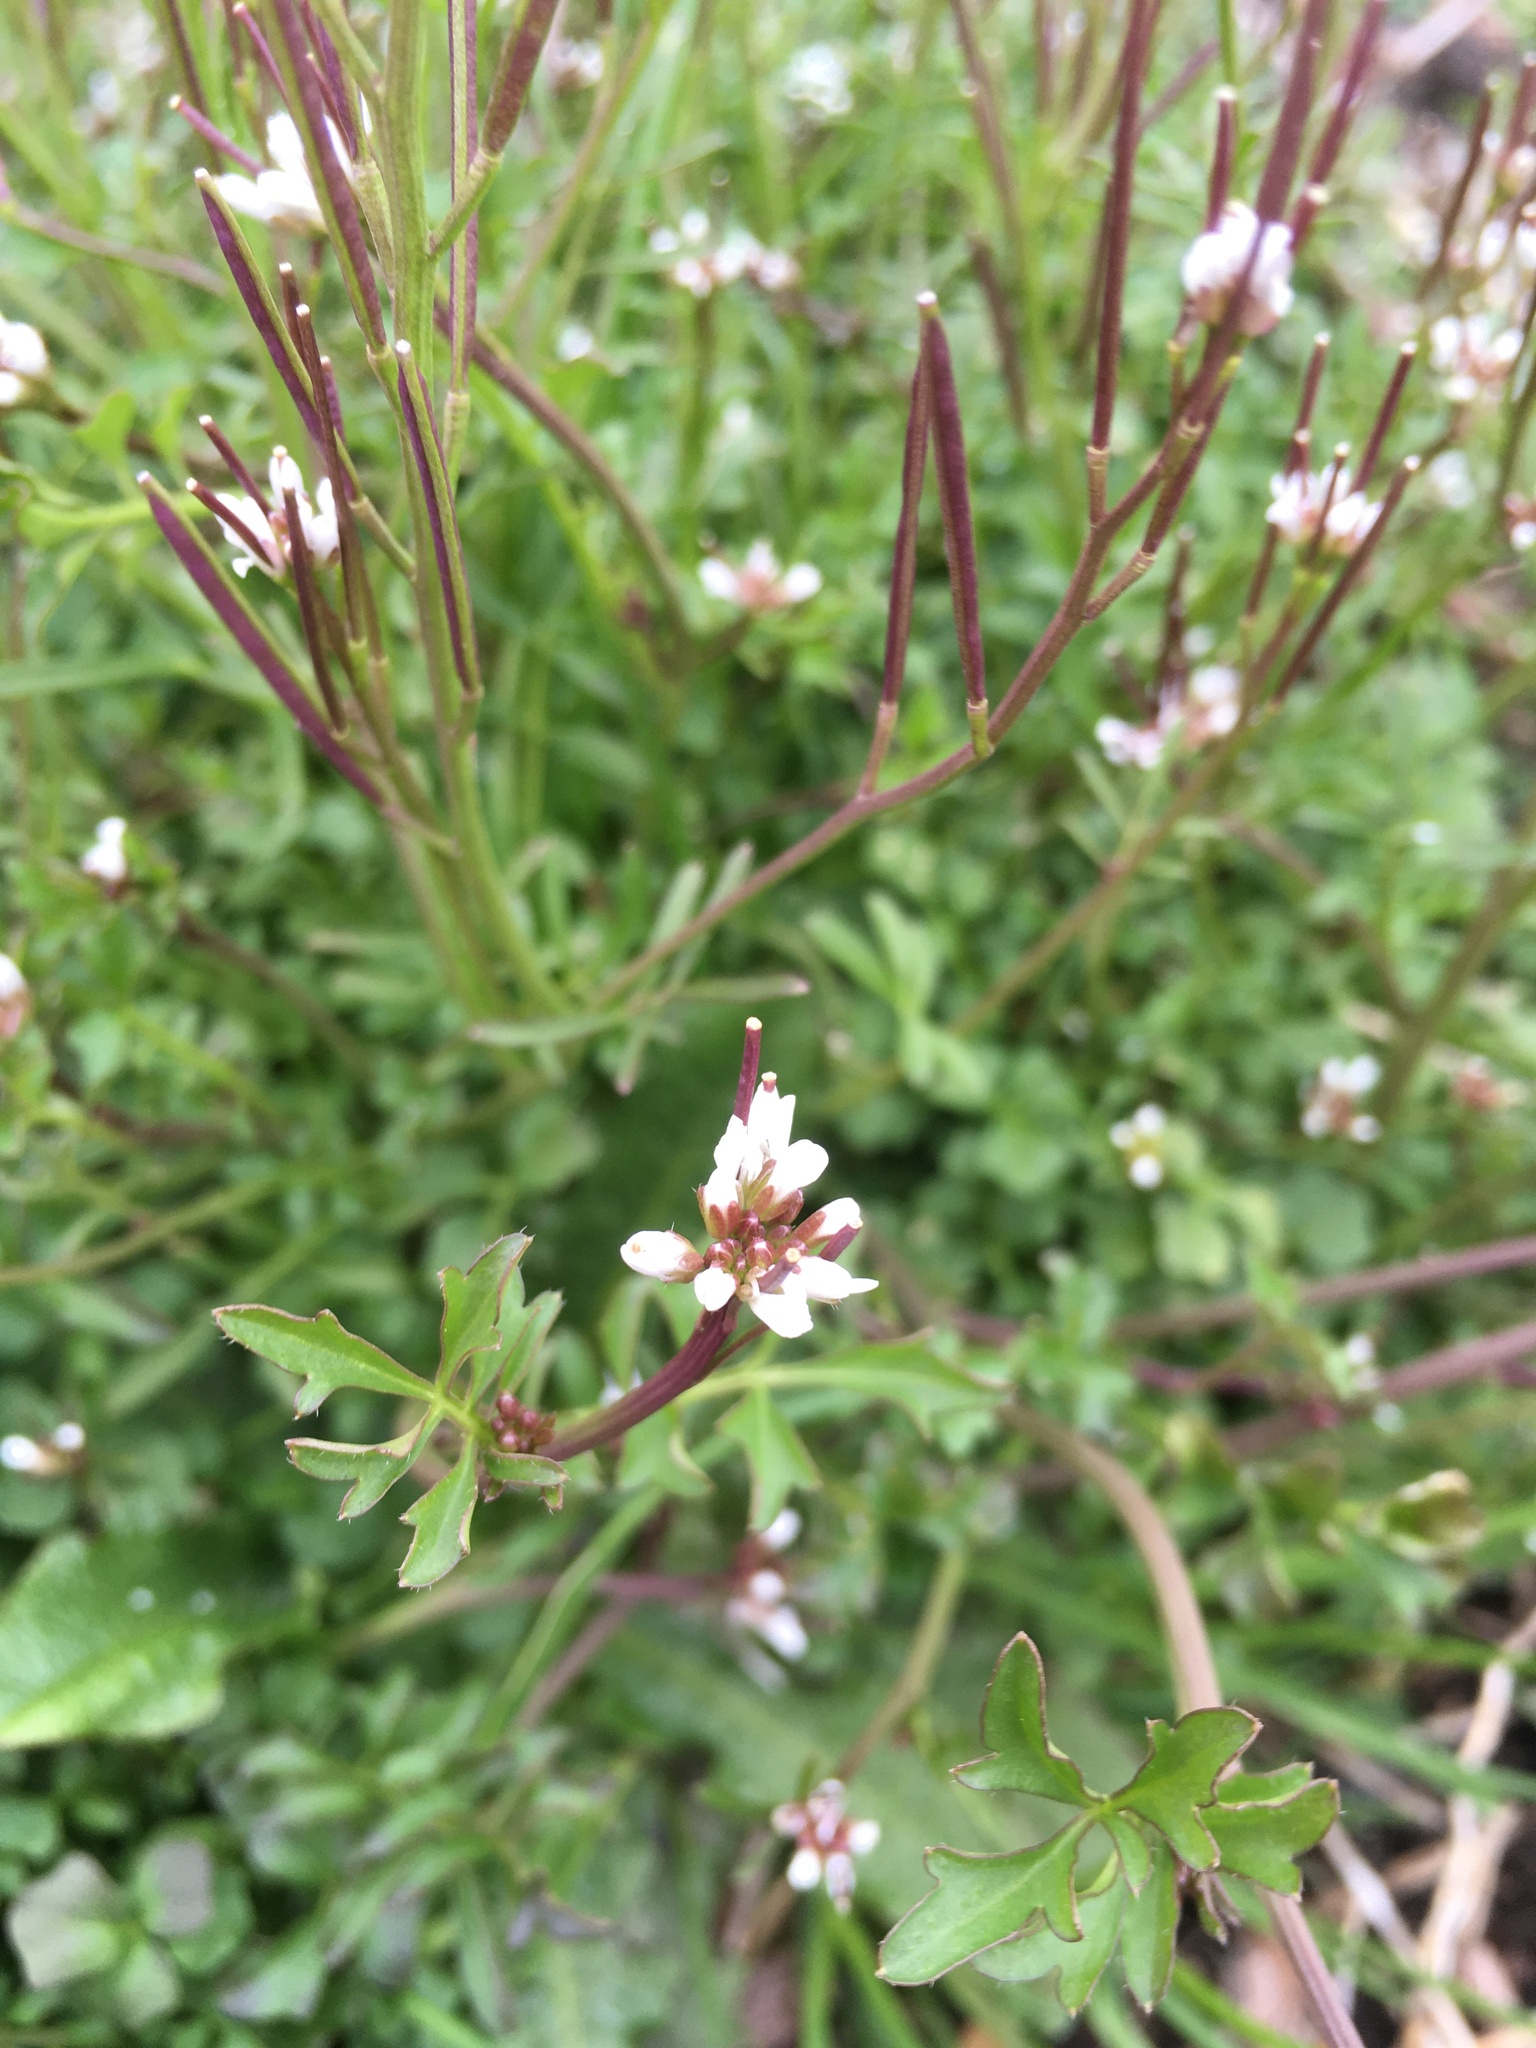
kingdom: Plantae
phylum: Tracheophyta
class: Magnoliopsida
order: Brassicales
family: Brassicaceae
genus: Cardamine
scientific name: Cardamine hirsuta
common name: Hairy bittercress
